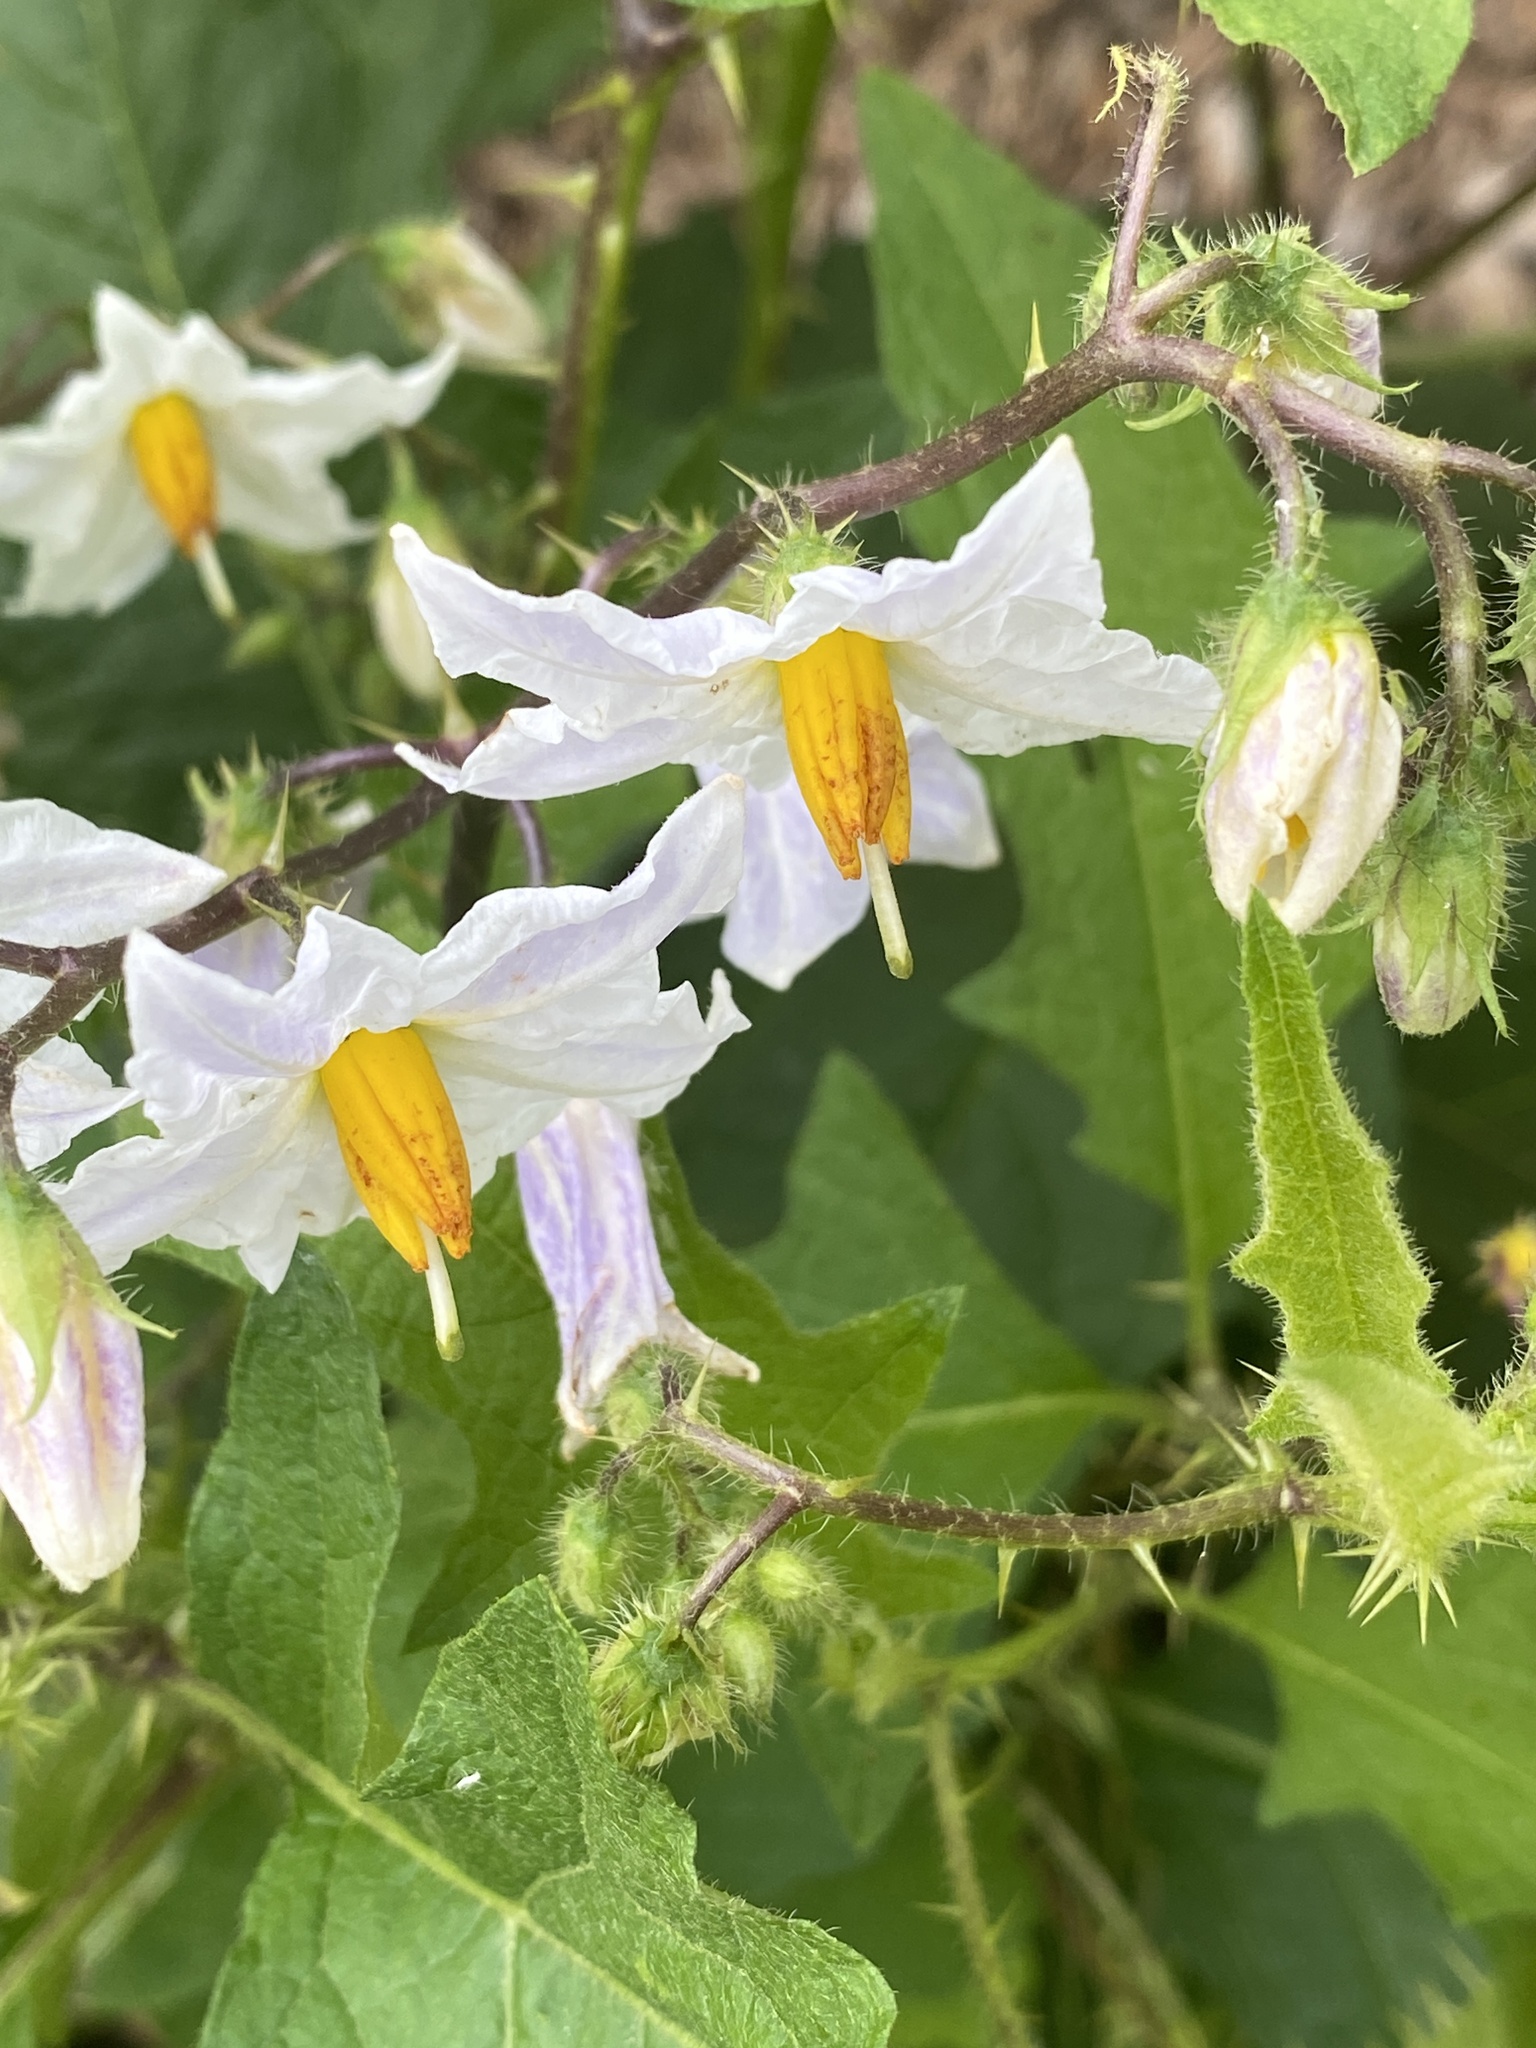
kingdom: Plantae
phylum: Tracheophyta
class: Magnoliopsida
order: Solanales
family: Solanaceae
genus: Solanum
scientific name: Solanum carolinense
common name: Horse-nettle
